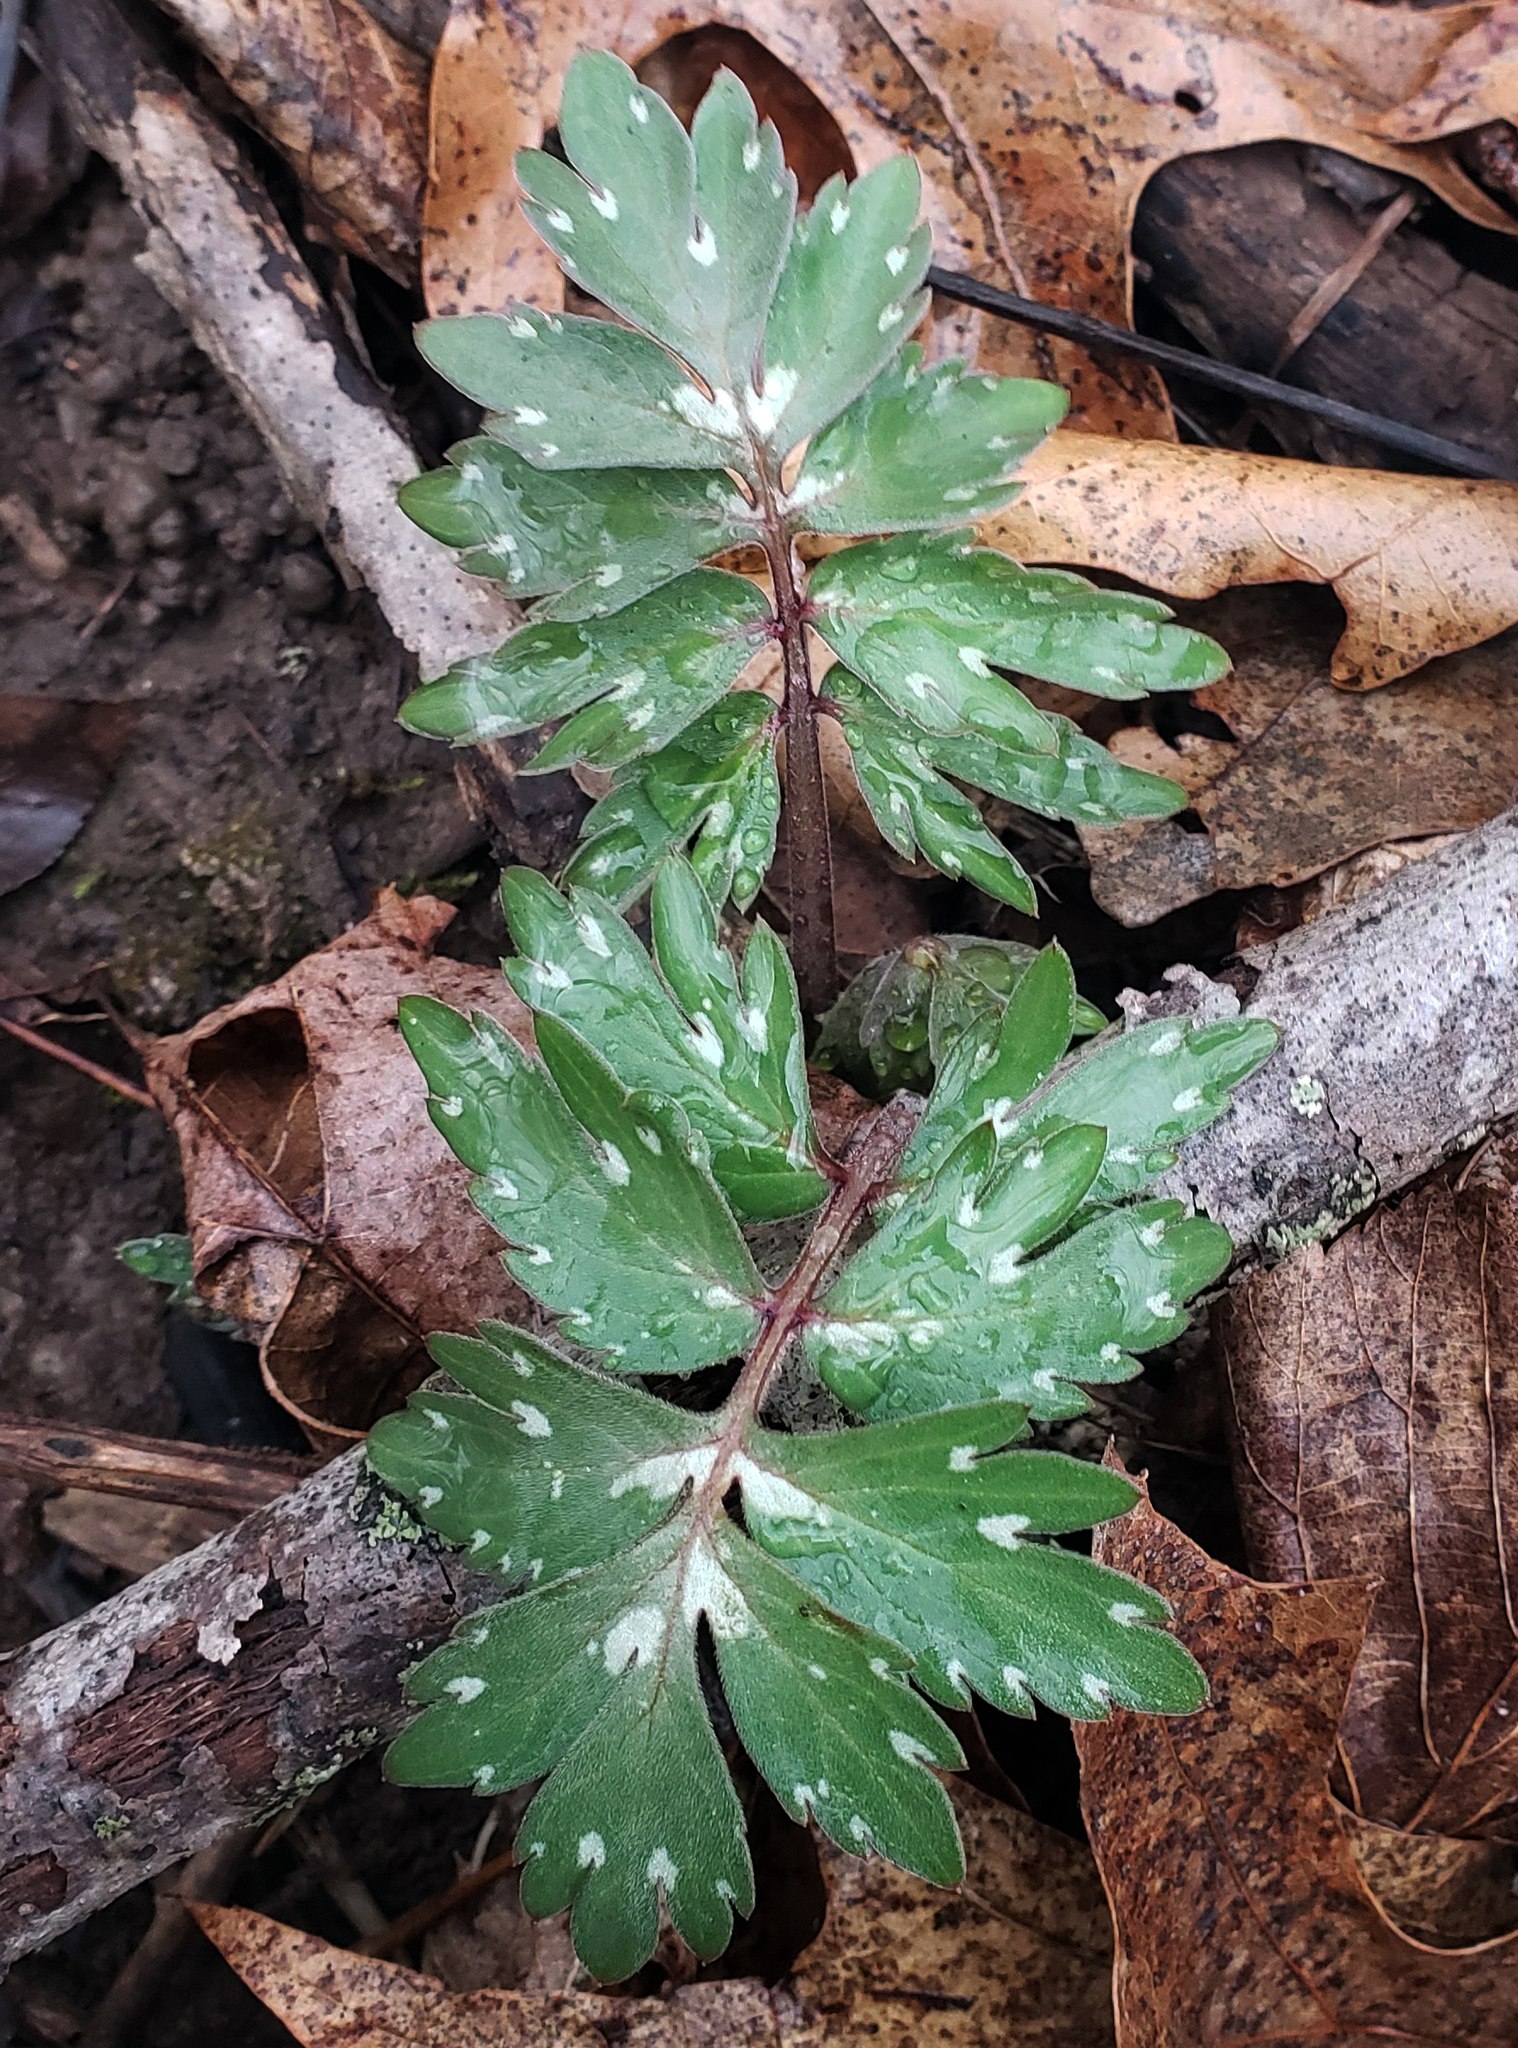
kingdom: Plantae
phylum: Tracheophyta
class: Magnoliopsida
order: Boraginales
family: Hydrophyllaceae
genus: Hydrophyllum
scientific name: Hydrophyllum virginianum
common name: Virginia waterleaf
